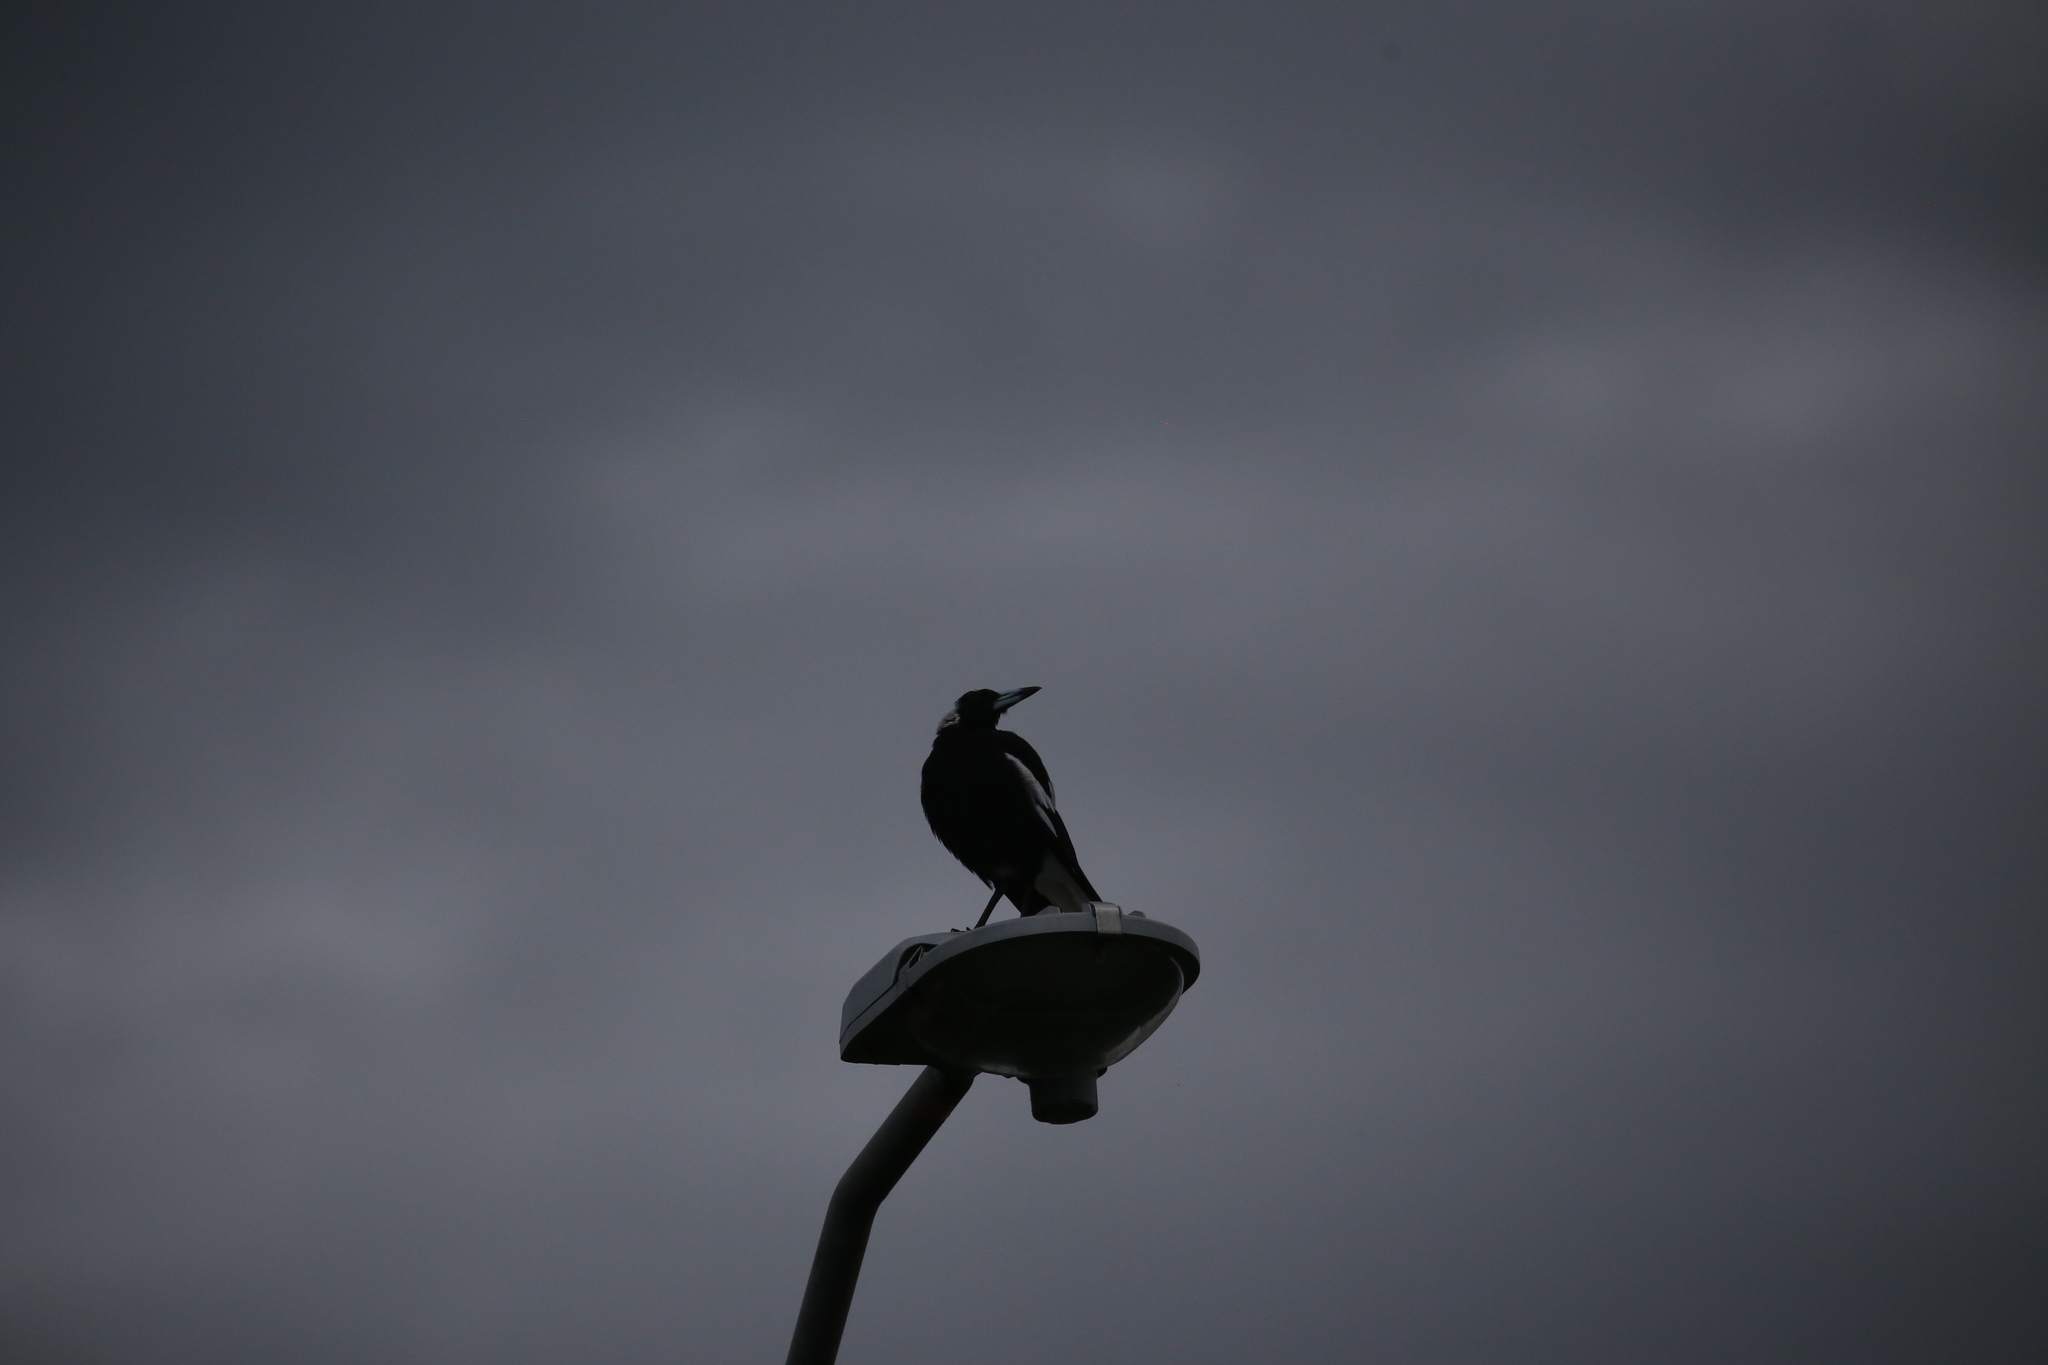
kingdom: Animalia
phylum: Chordata
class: Aves
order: Passeriformes
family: Cracticidae
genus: Gymnorhina
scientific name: Gymnorhina tibicen
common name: Australian magpie
